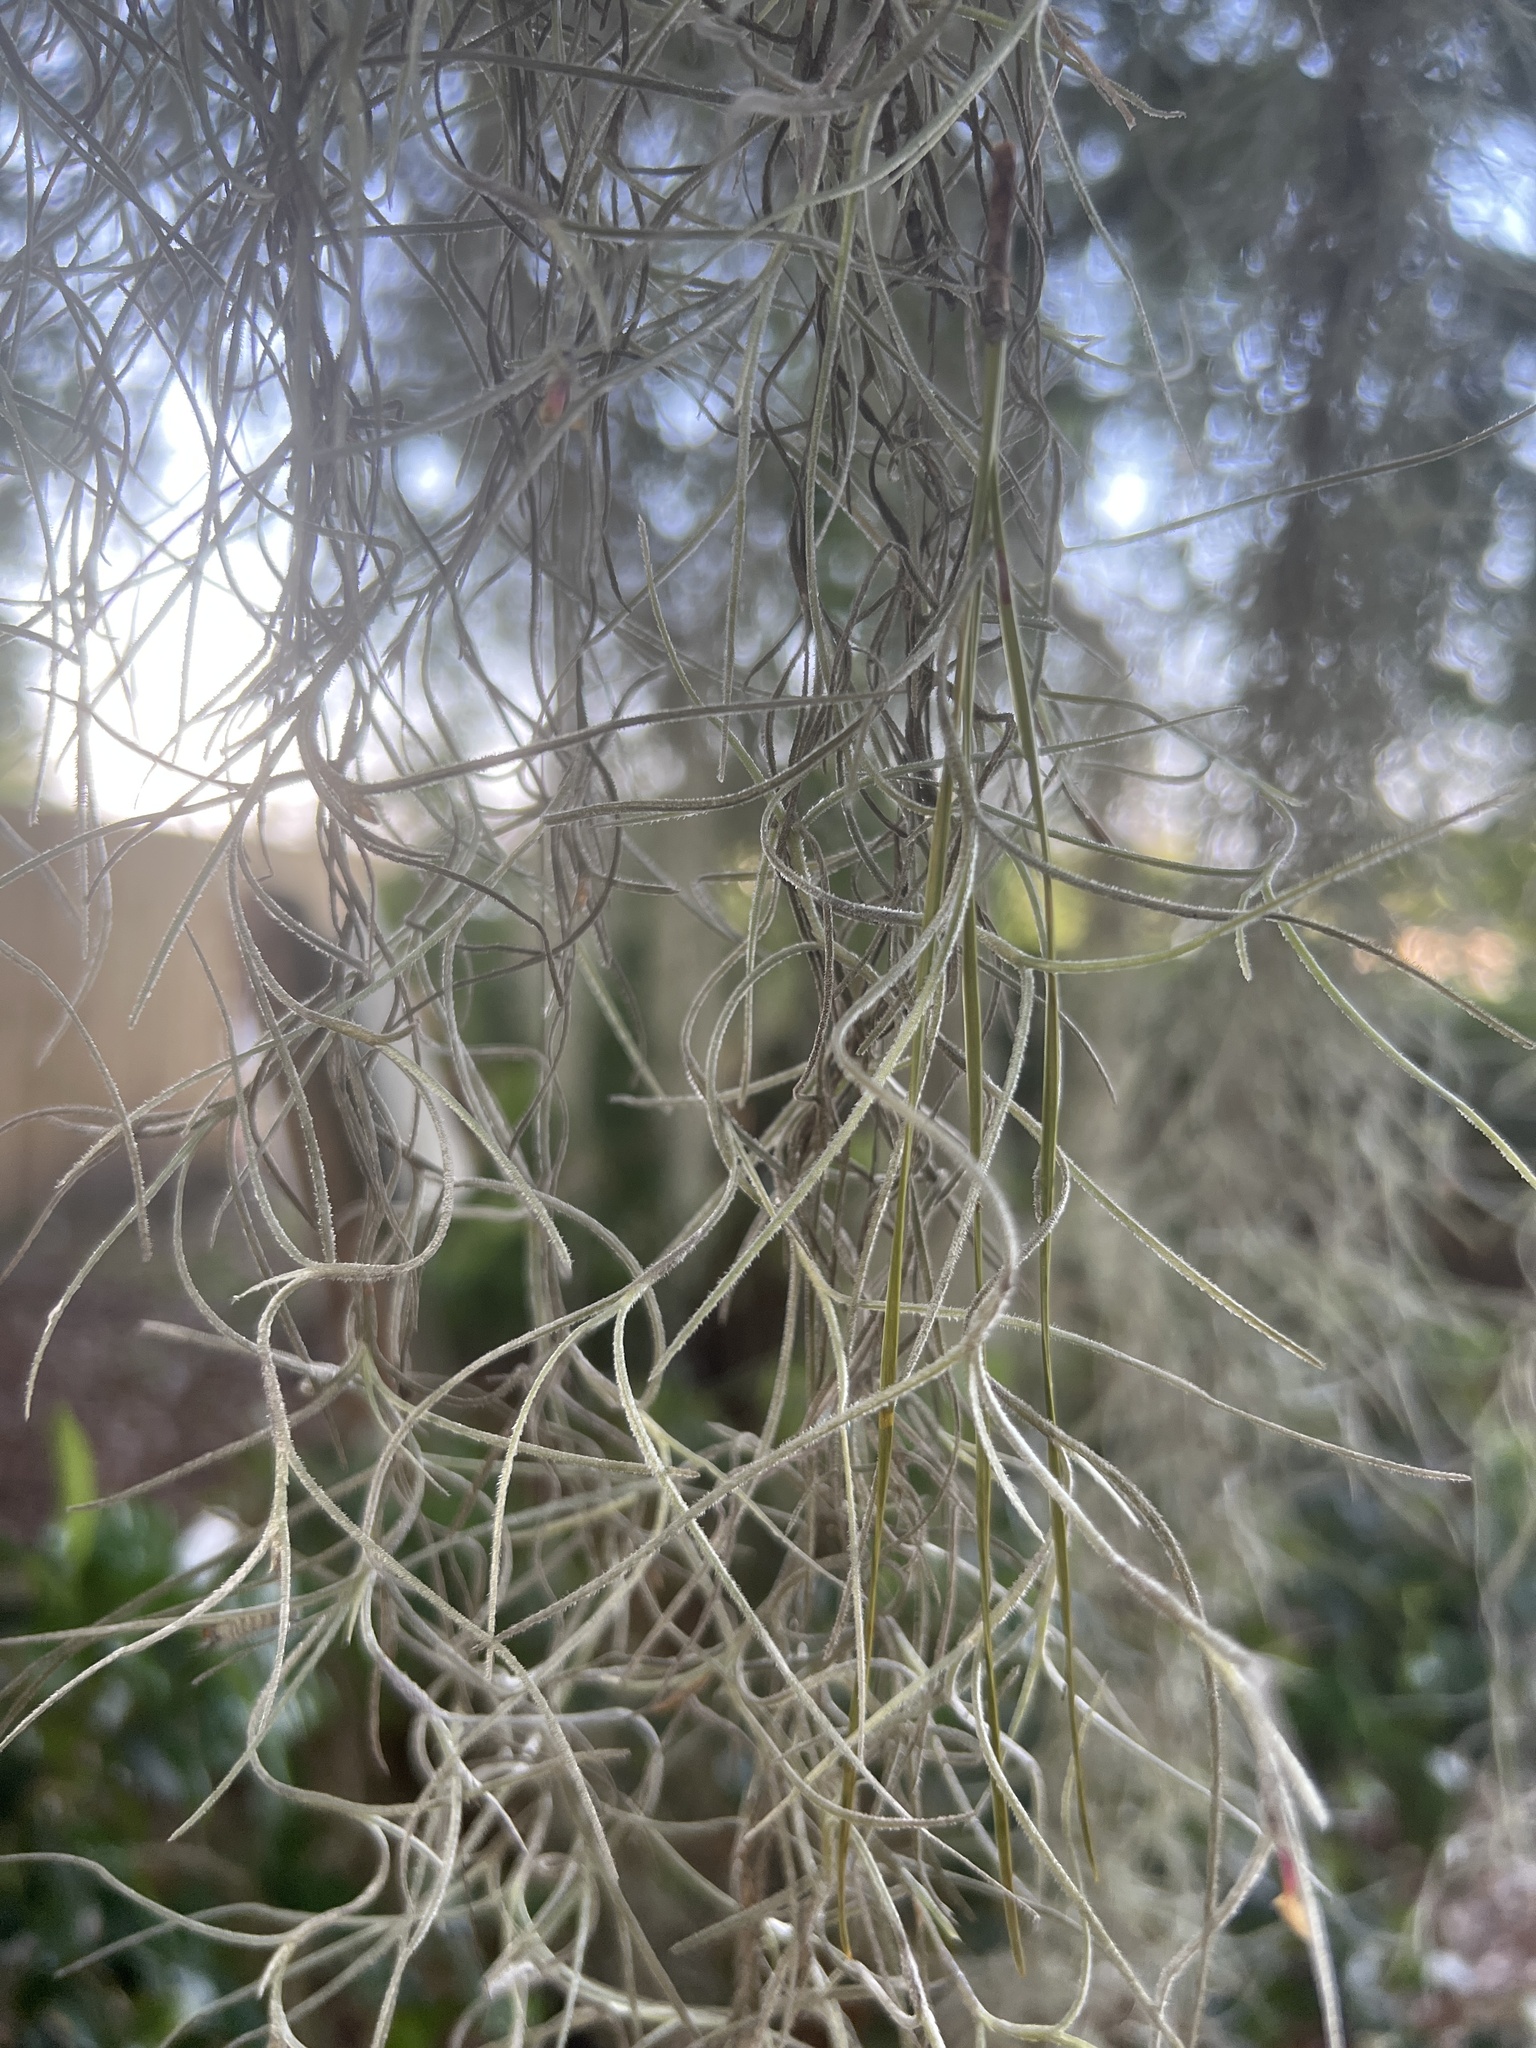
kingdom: Plantae
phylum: Tracheophyta
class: Liliopsida
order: Poales
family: Bromeliaceae
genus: Tillandsia
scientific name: Tillandsia usneoides
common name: Spanish moss
